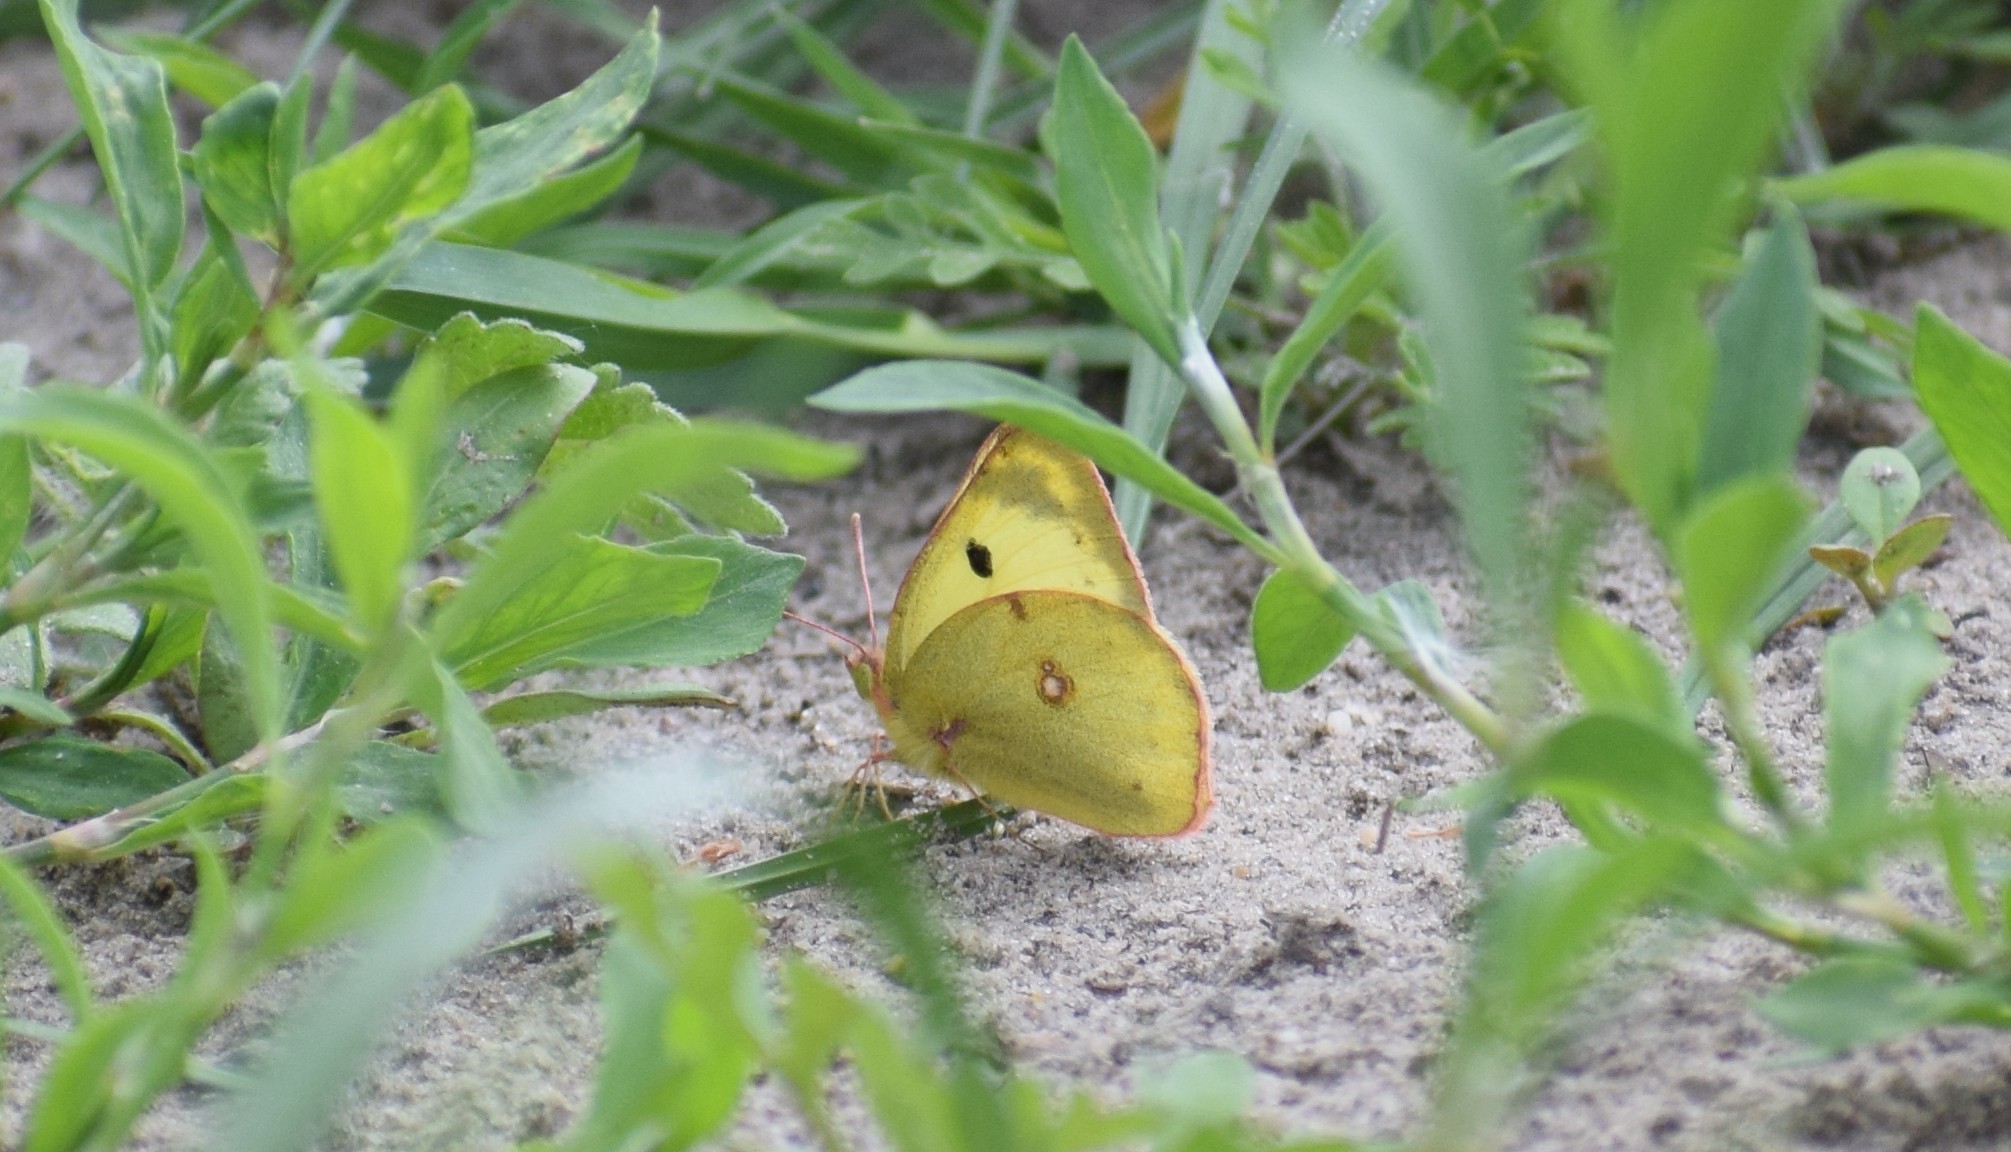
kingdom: Animalia
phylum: Arthropoda
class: Insecta
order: Lepidoptera
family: Pieridae
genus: Colias
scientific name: Colias
